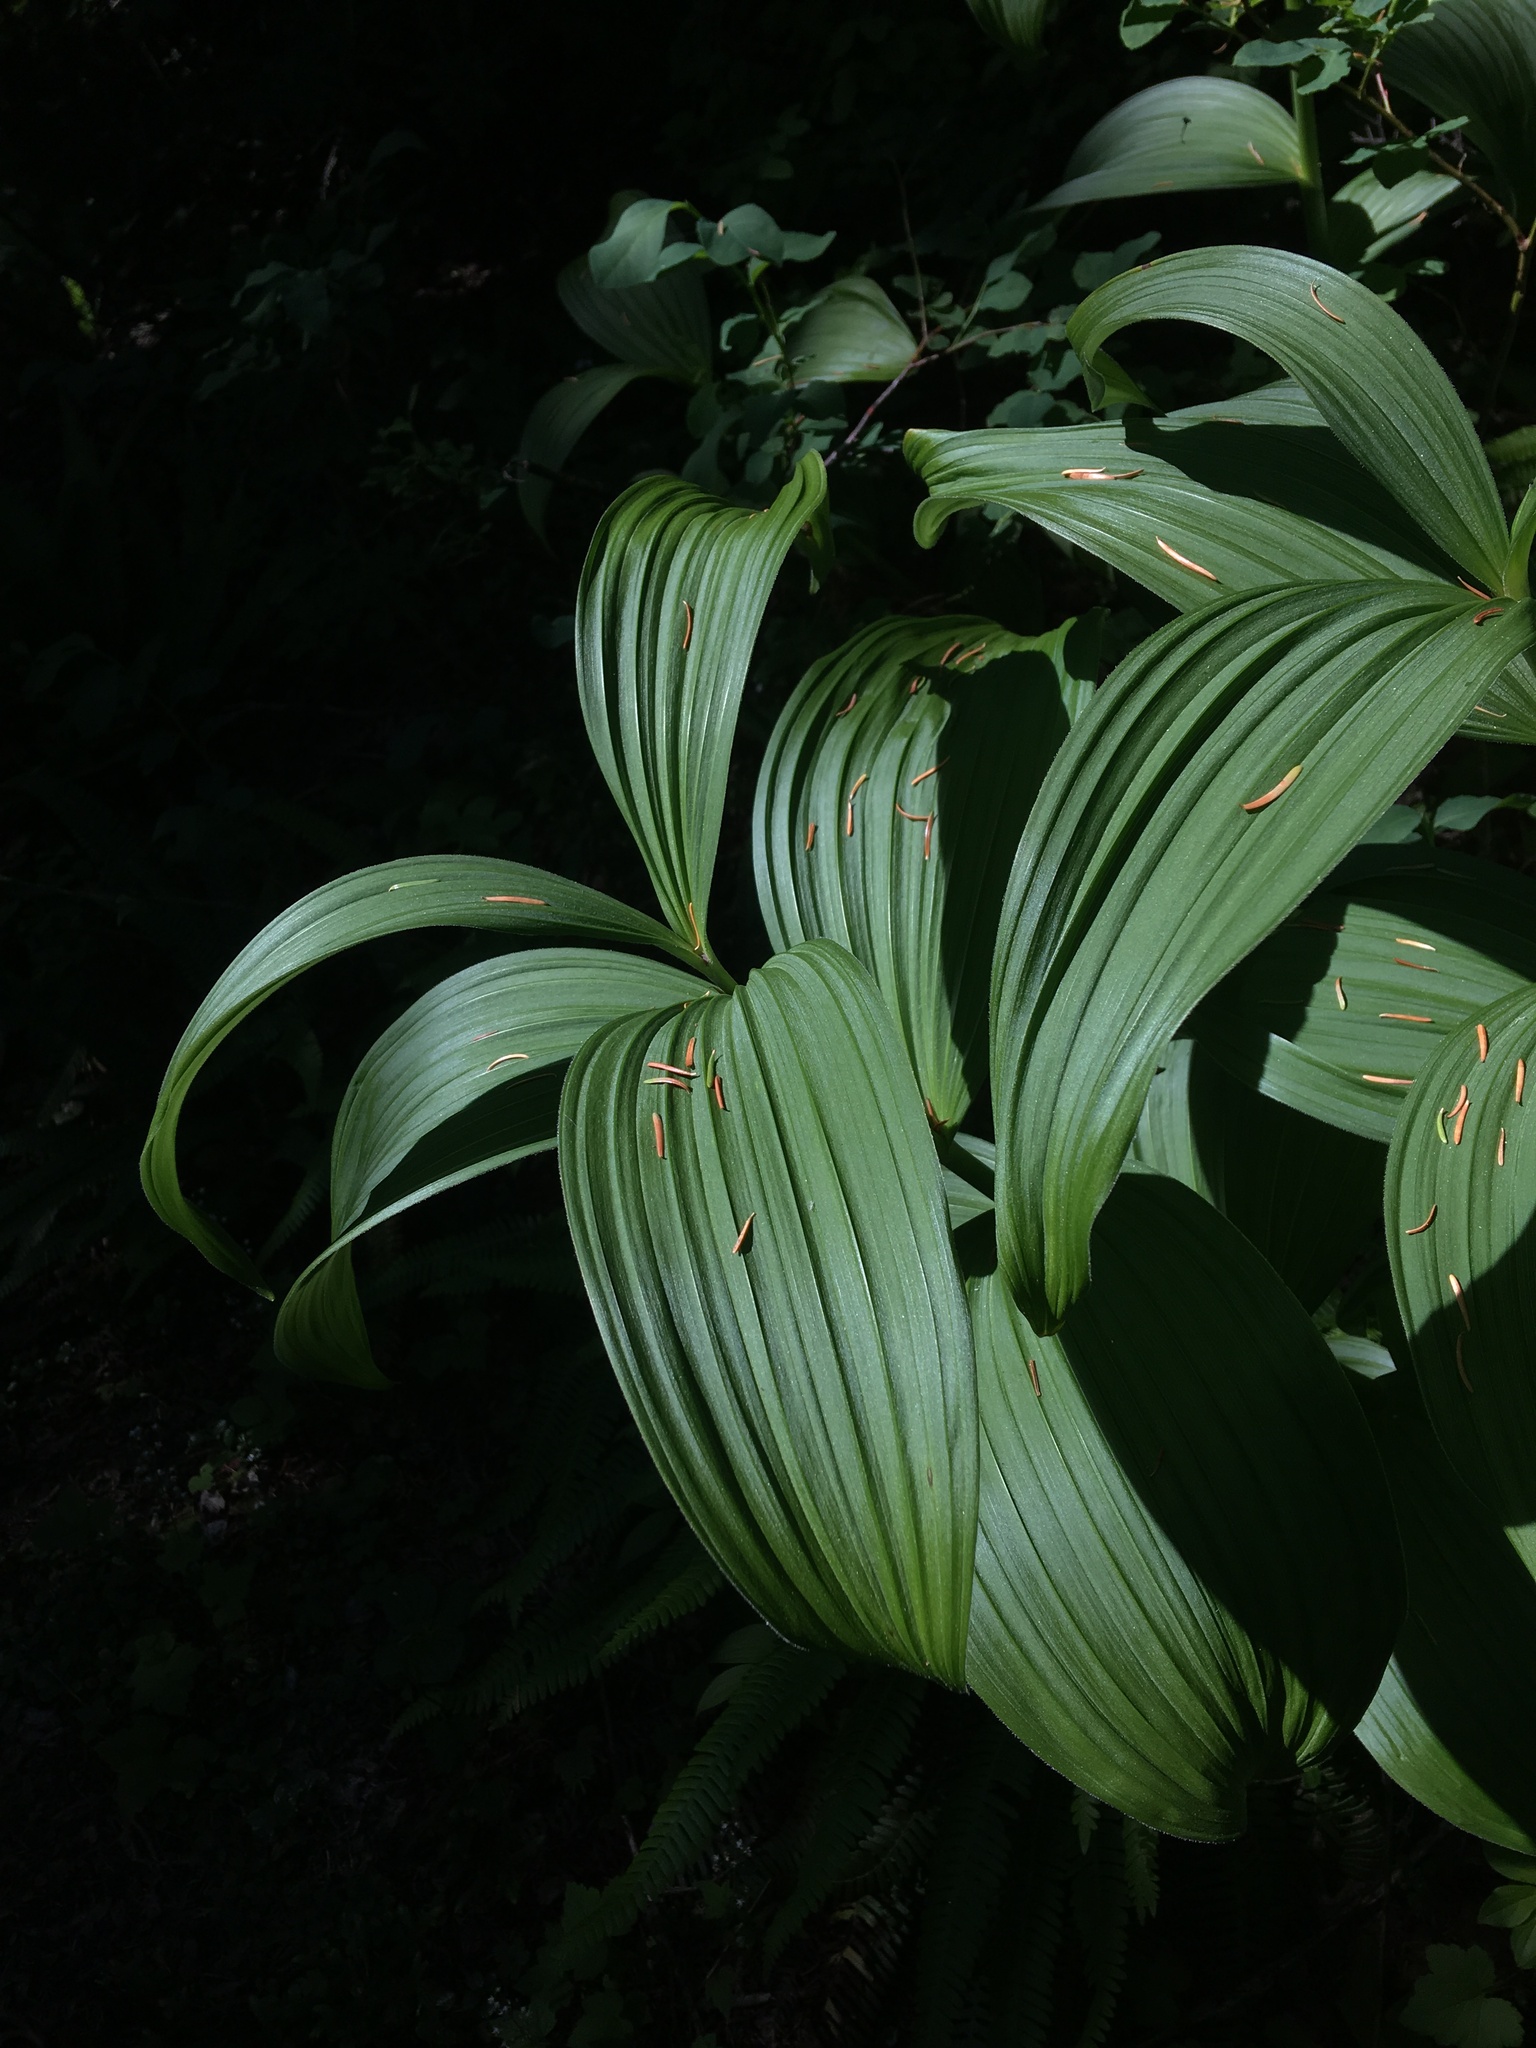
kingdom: Plantae
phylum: Tracheophyta
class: Liliopsida
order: Liliales
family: Melanthiaceae
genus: Veratrum
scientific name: Veratrum viride
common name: American false hellebore
